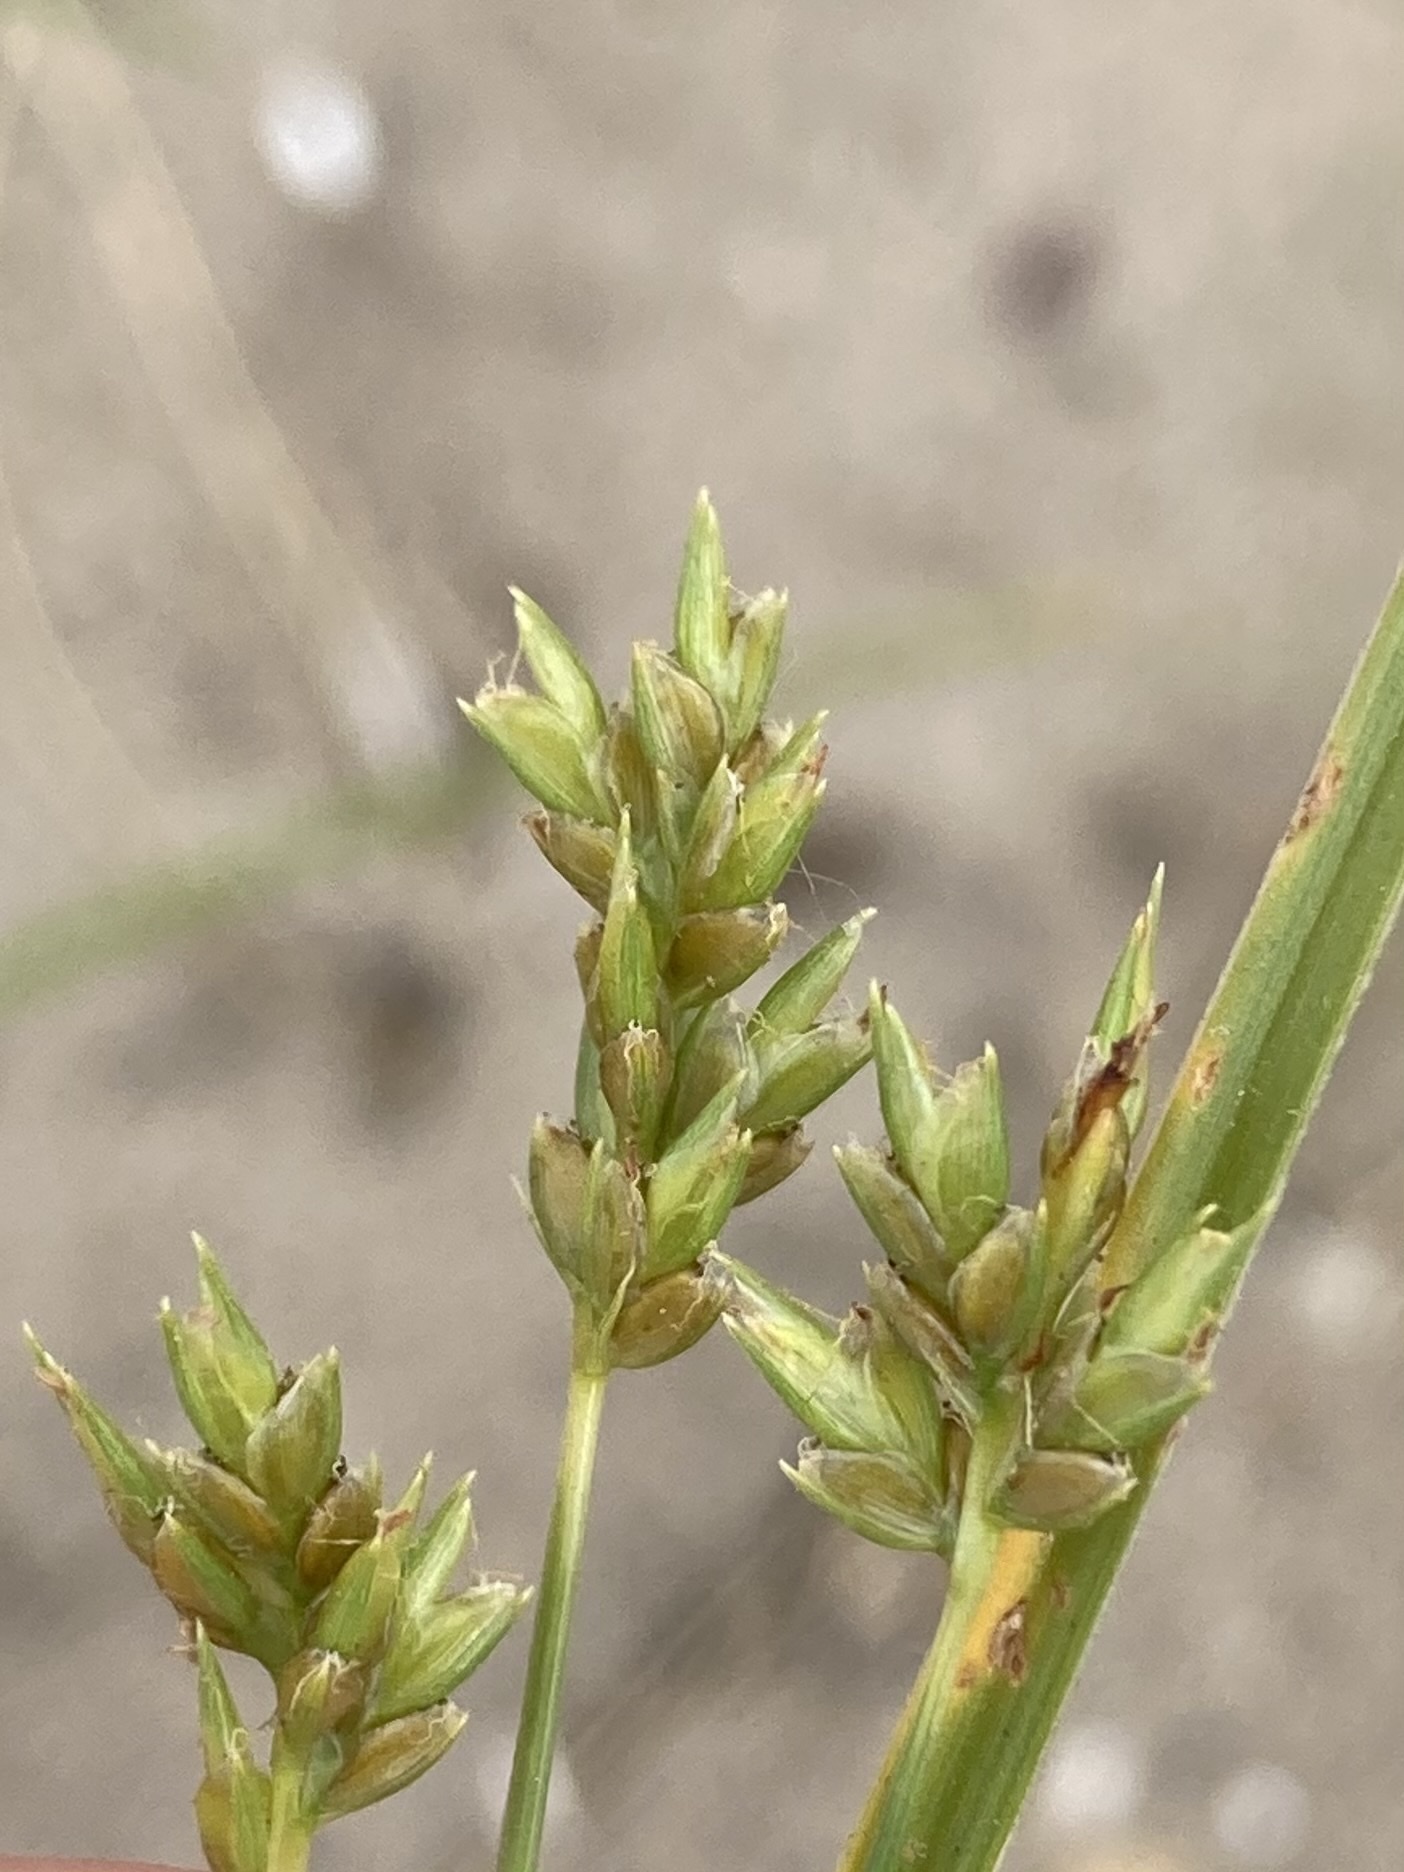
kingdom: Plantae
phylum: Tracheophyta
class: Liliopsida
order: Poales
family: Cyperaceae
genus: Cyperus
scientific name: Cyperus schweinitzii
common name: Schweinitz's cyperus
